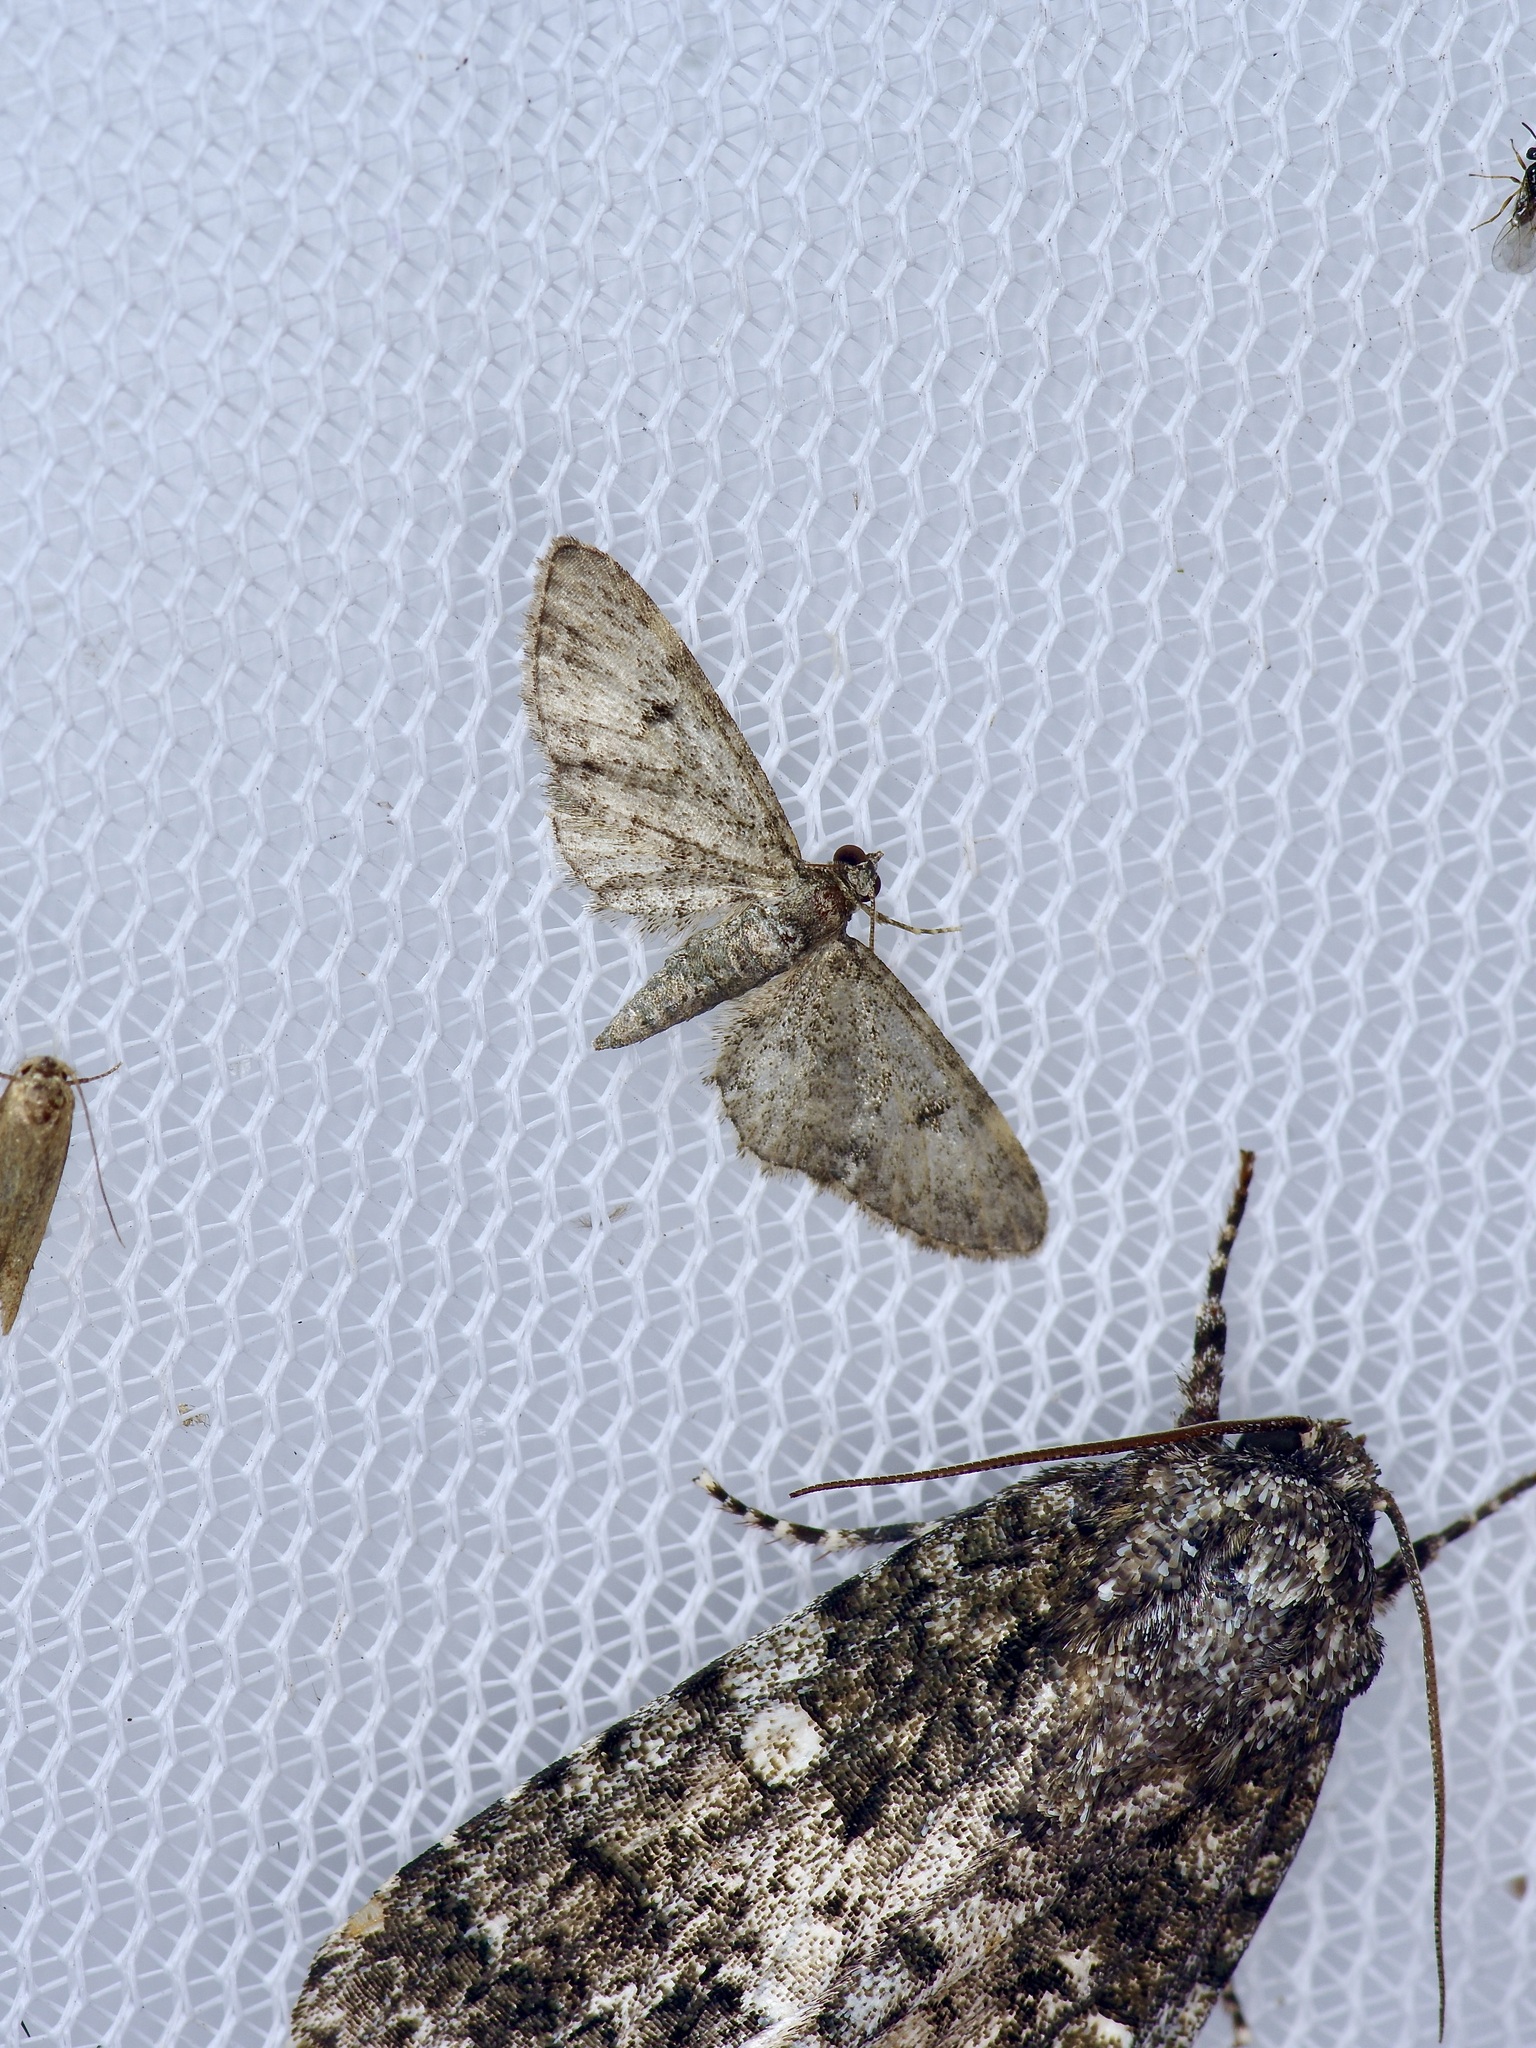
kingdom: Animalia
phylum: Arthropoda
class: Insecta
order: Lepidoptera
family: Geometridae
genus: Eupithecia
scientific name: Eupithecia miserulata
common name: Common eupithecia
